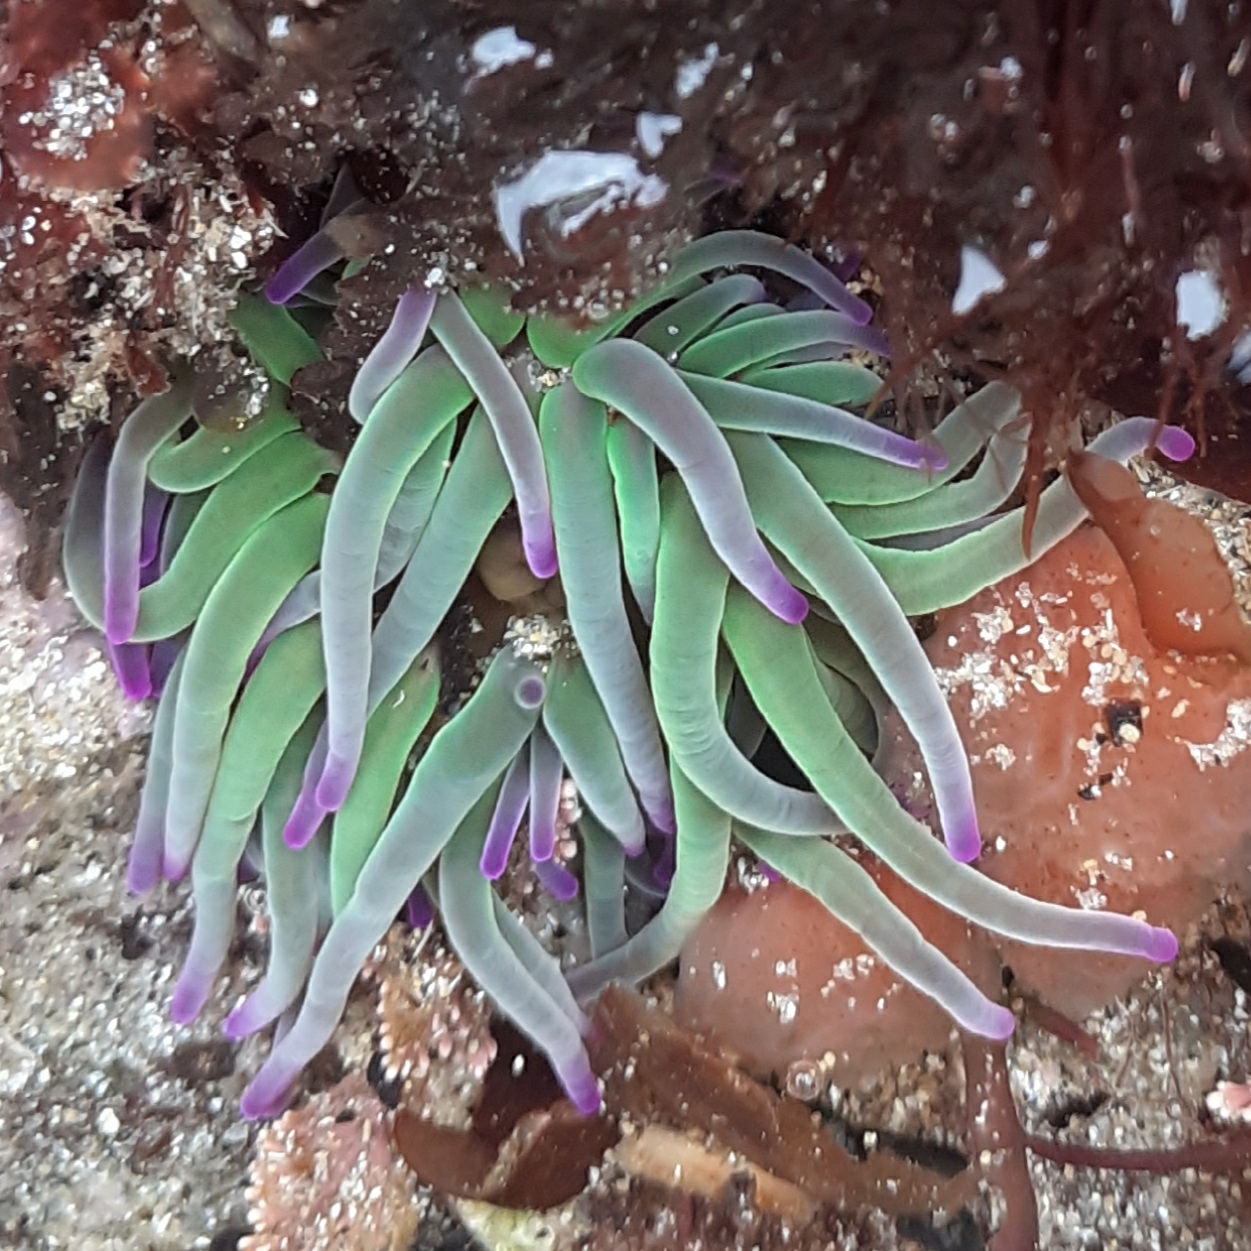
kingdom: Animalia
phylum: Cnidaria
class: Anthozoa
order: Actiniaria
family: Actiniidae
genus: Anemonia
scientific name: Anemonia viridis
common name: Snakelocks anemone
